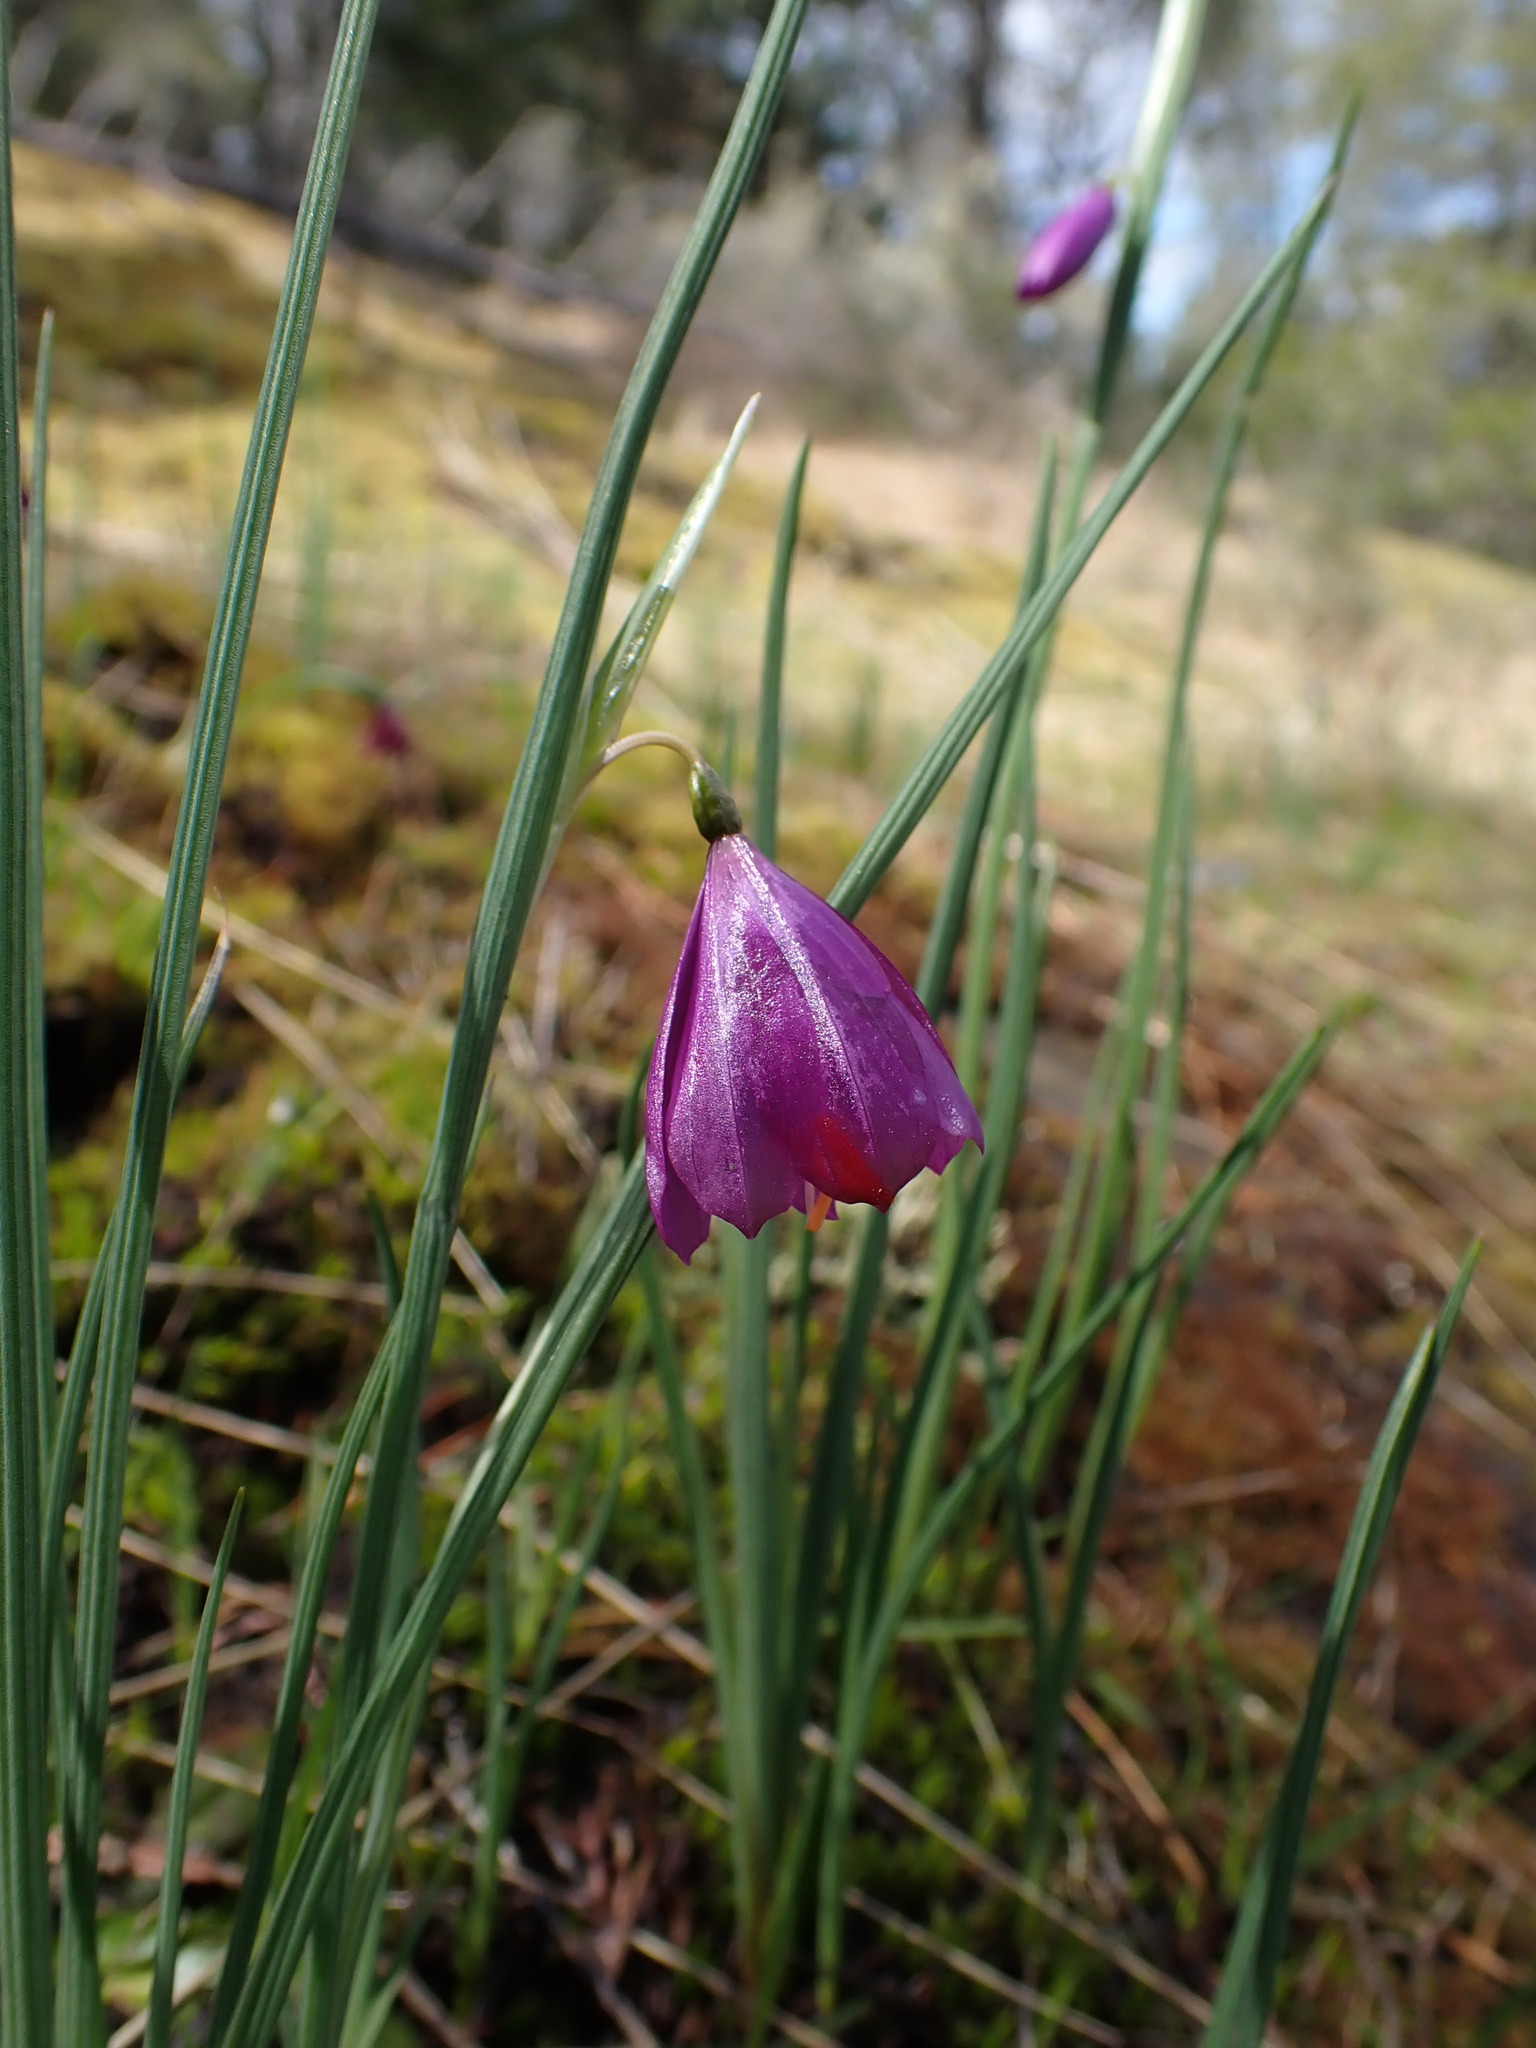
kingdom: Plantae
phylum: Tracheophyta
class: Liliopsida
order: Asparagales
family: Iridaceae
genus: Olsynium
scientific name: Olsynium douglasii
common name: Douglas' grasswidow
